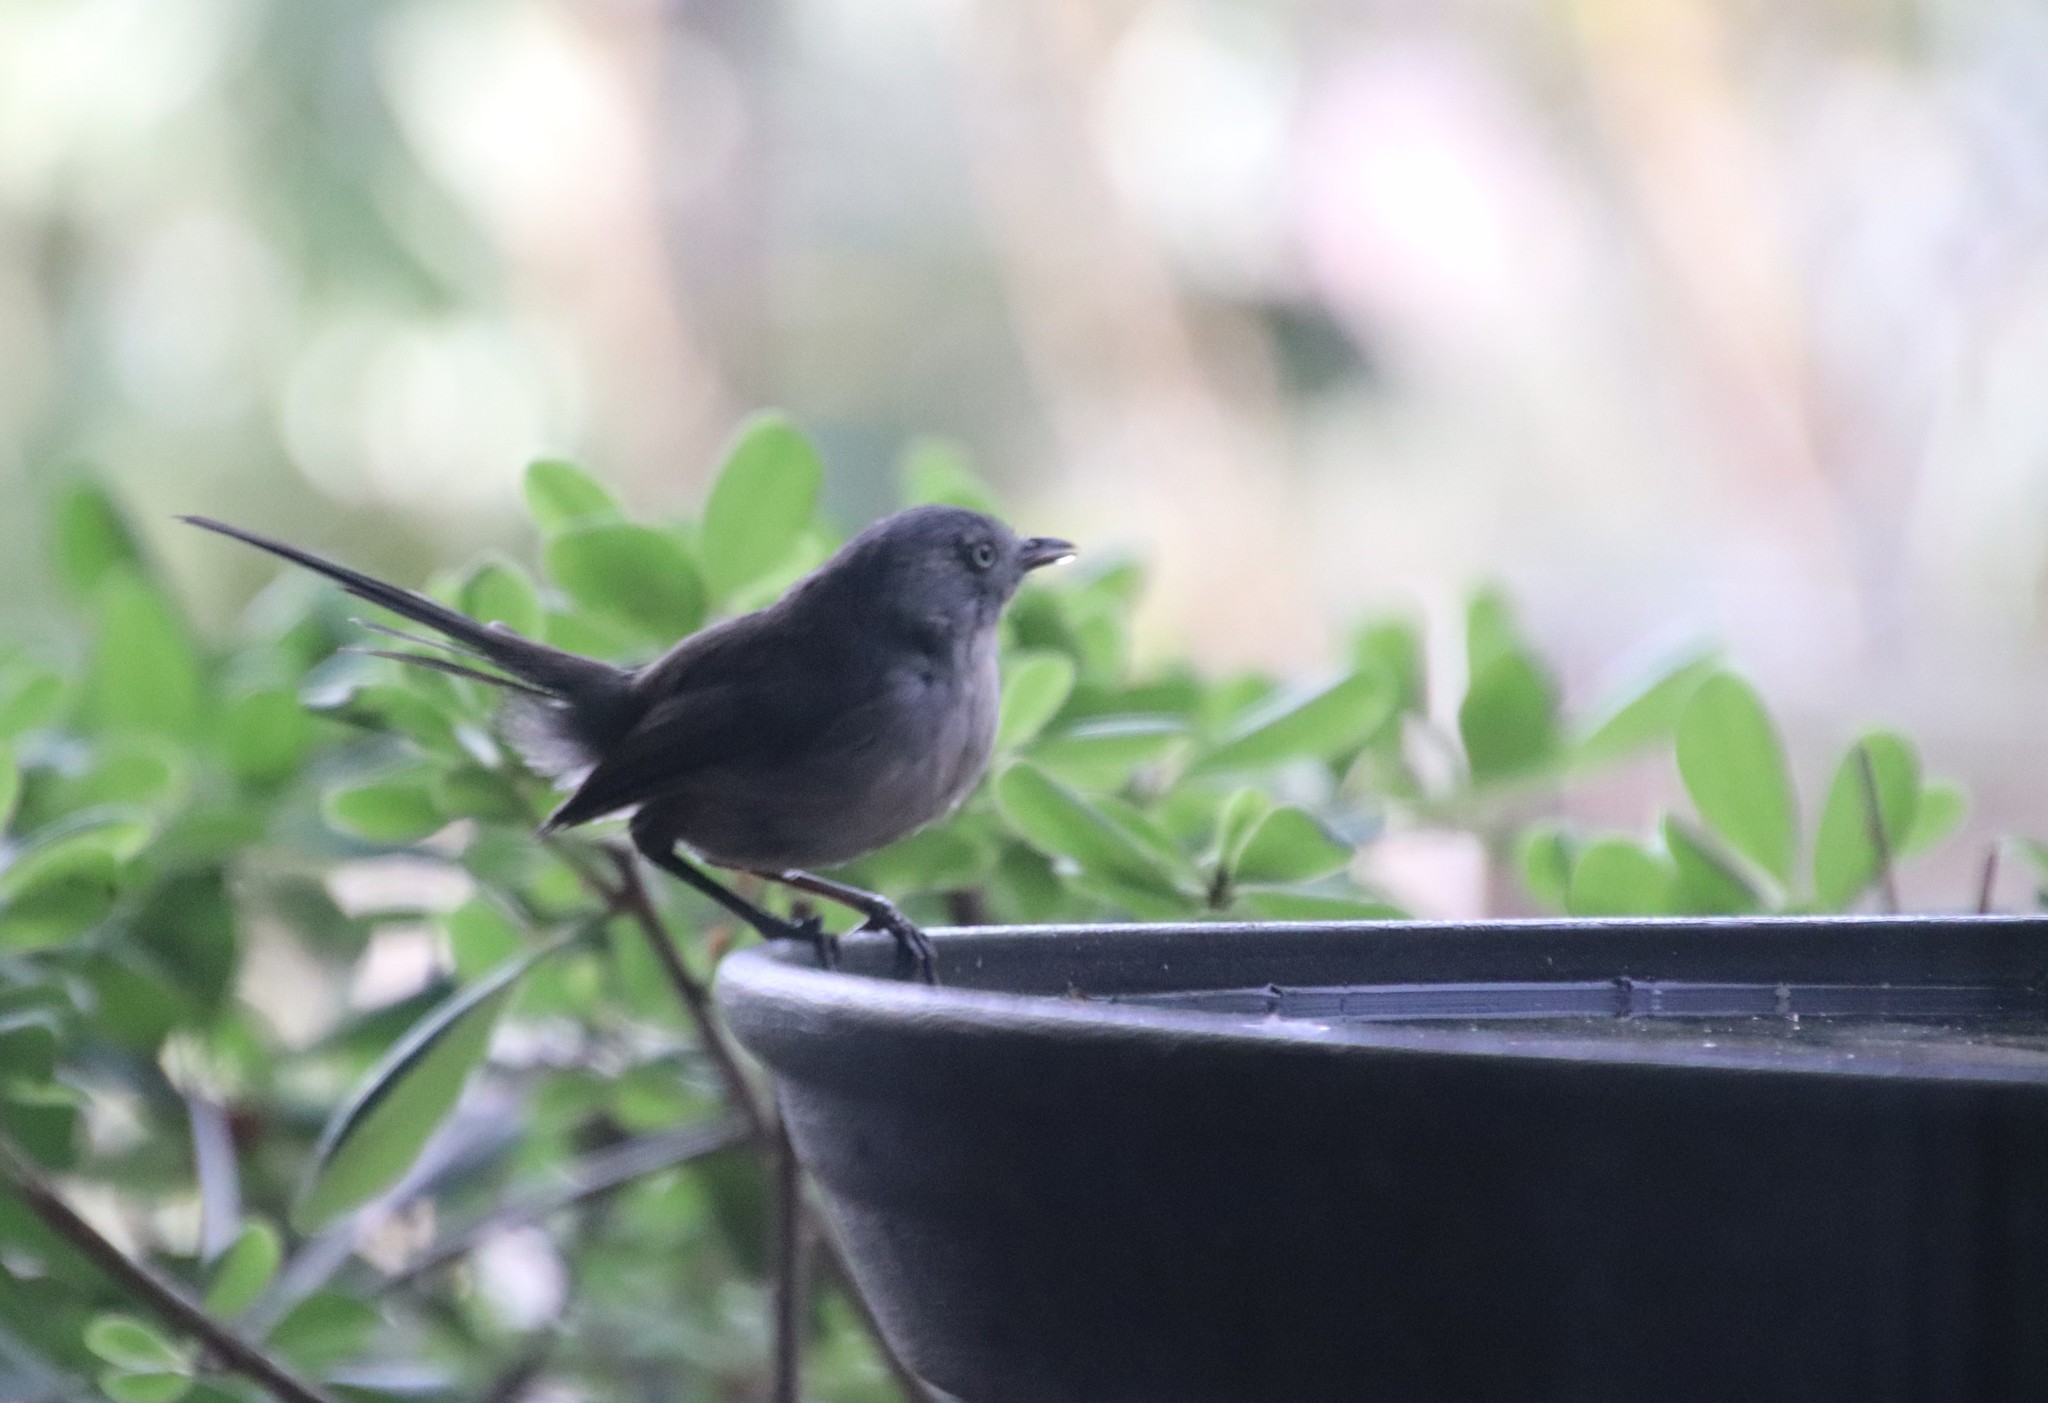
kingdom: Animalia
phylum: Chordata
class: Aves
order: Passeriformes
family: Sylviidae
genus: Chamaea
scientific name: Chamaea fasciata
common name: Wrentit
